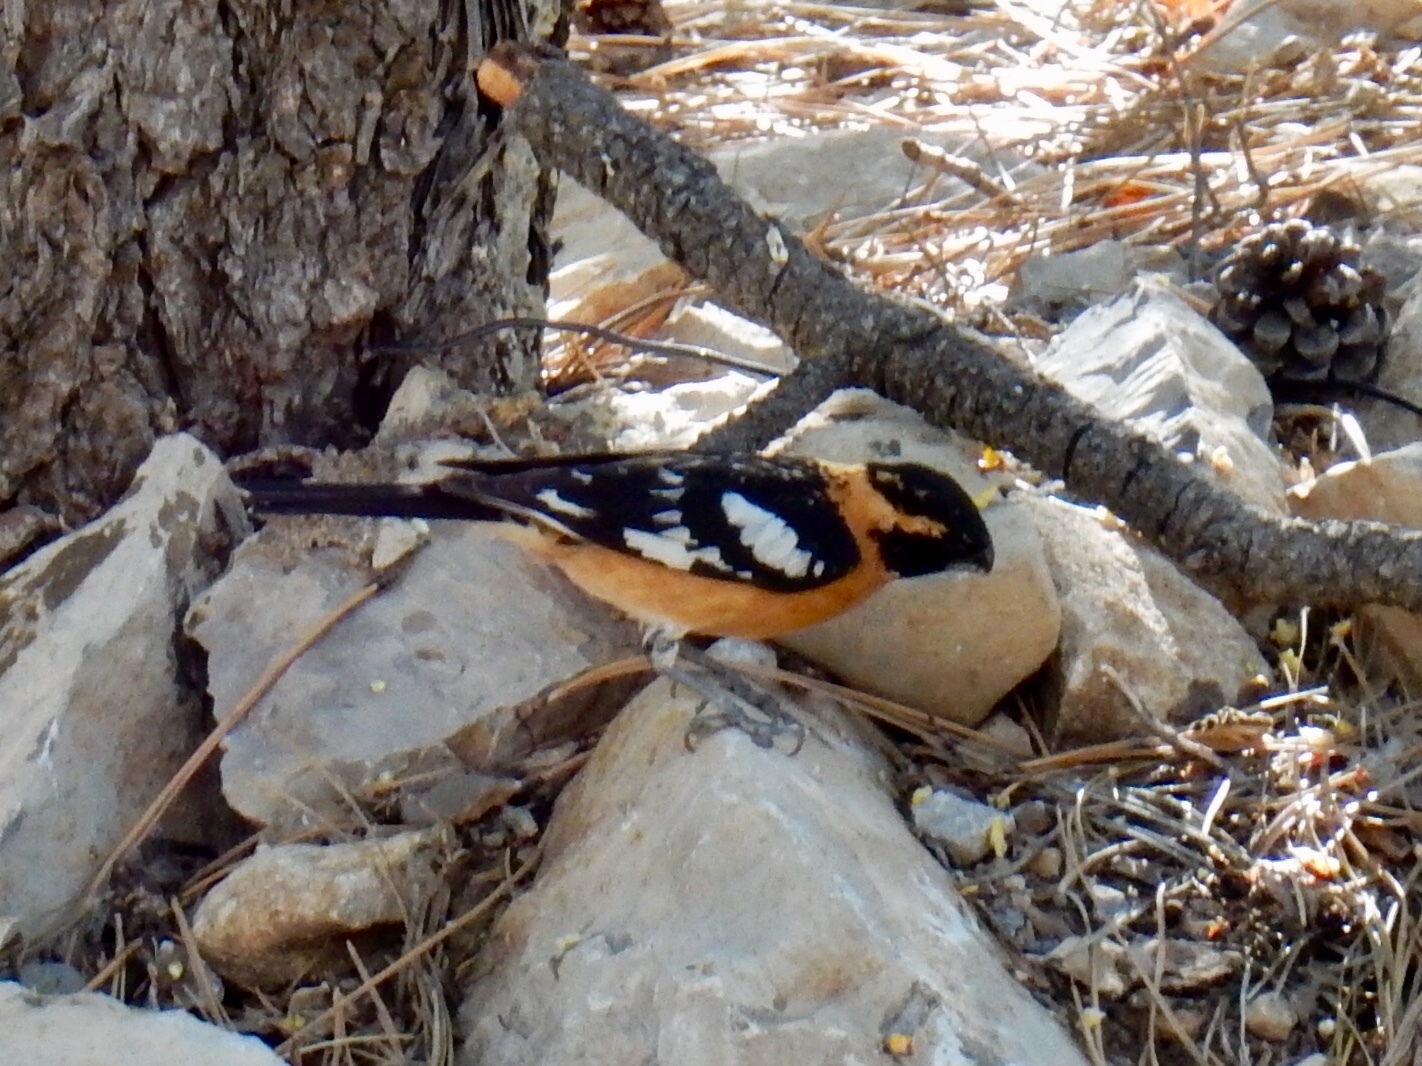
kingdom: Animalia
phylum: Chordata
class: Aves
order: Passeriformes
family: Cardinalidae
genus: Pheucticus
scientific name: Pheucticus melanocephalus
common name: Black-headed grosbeak
